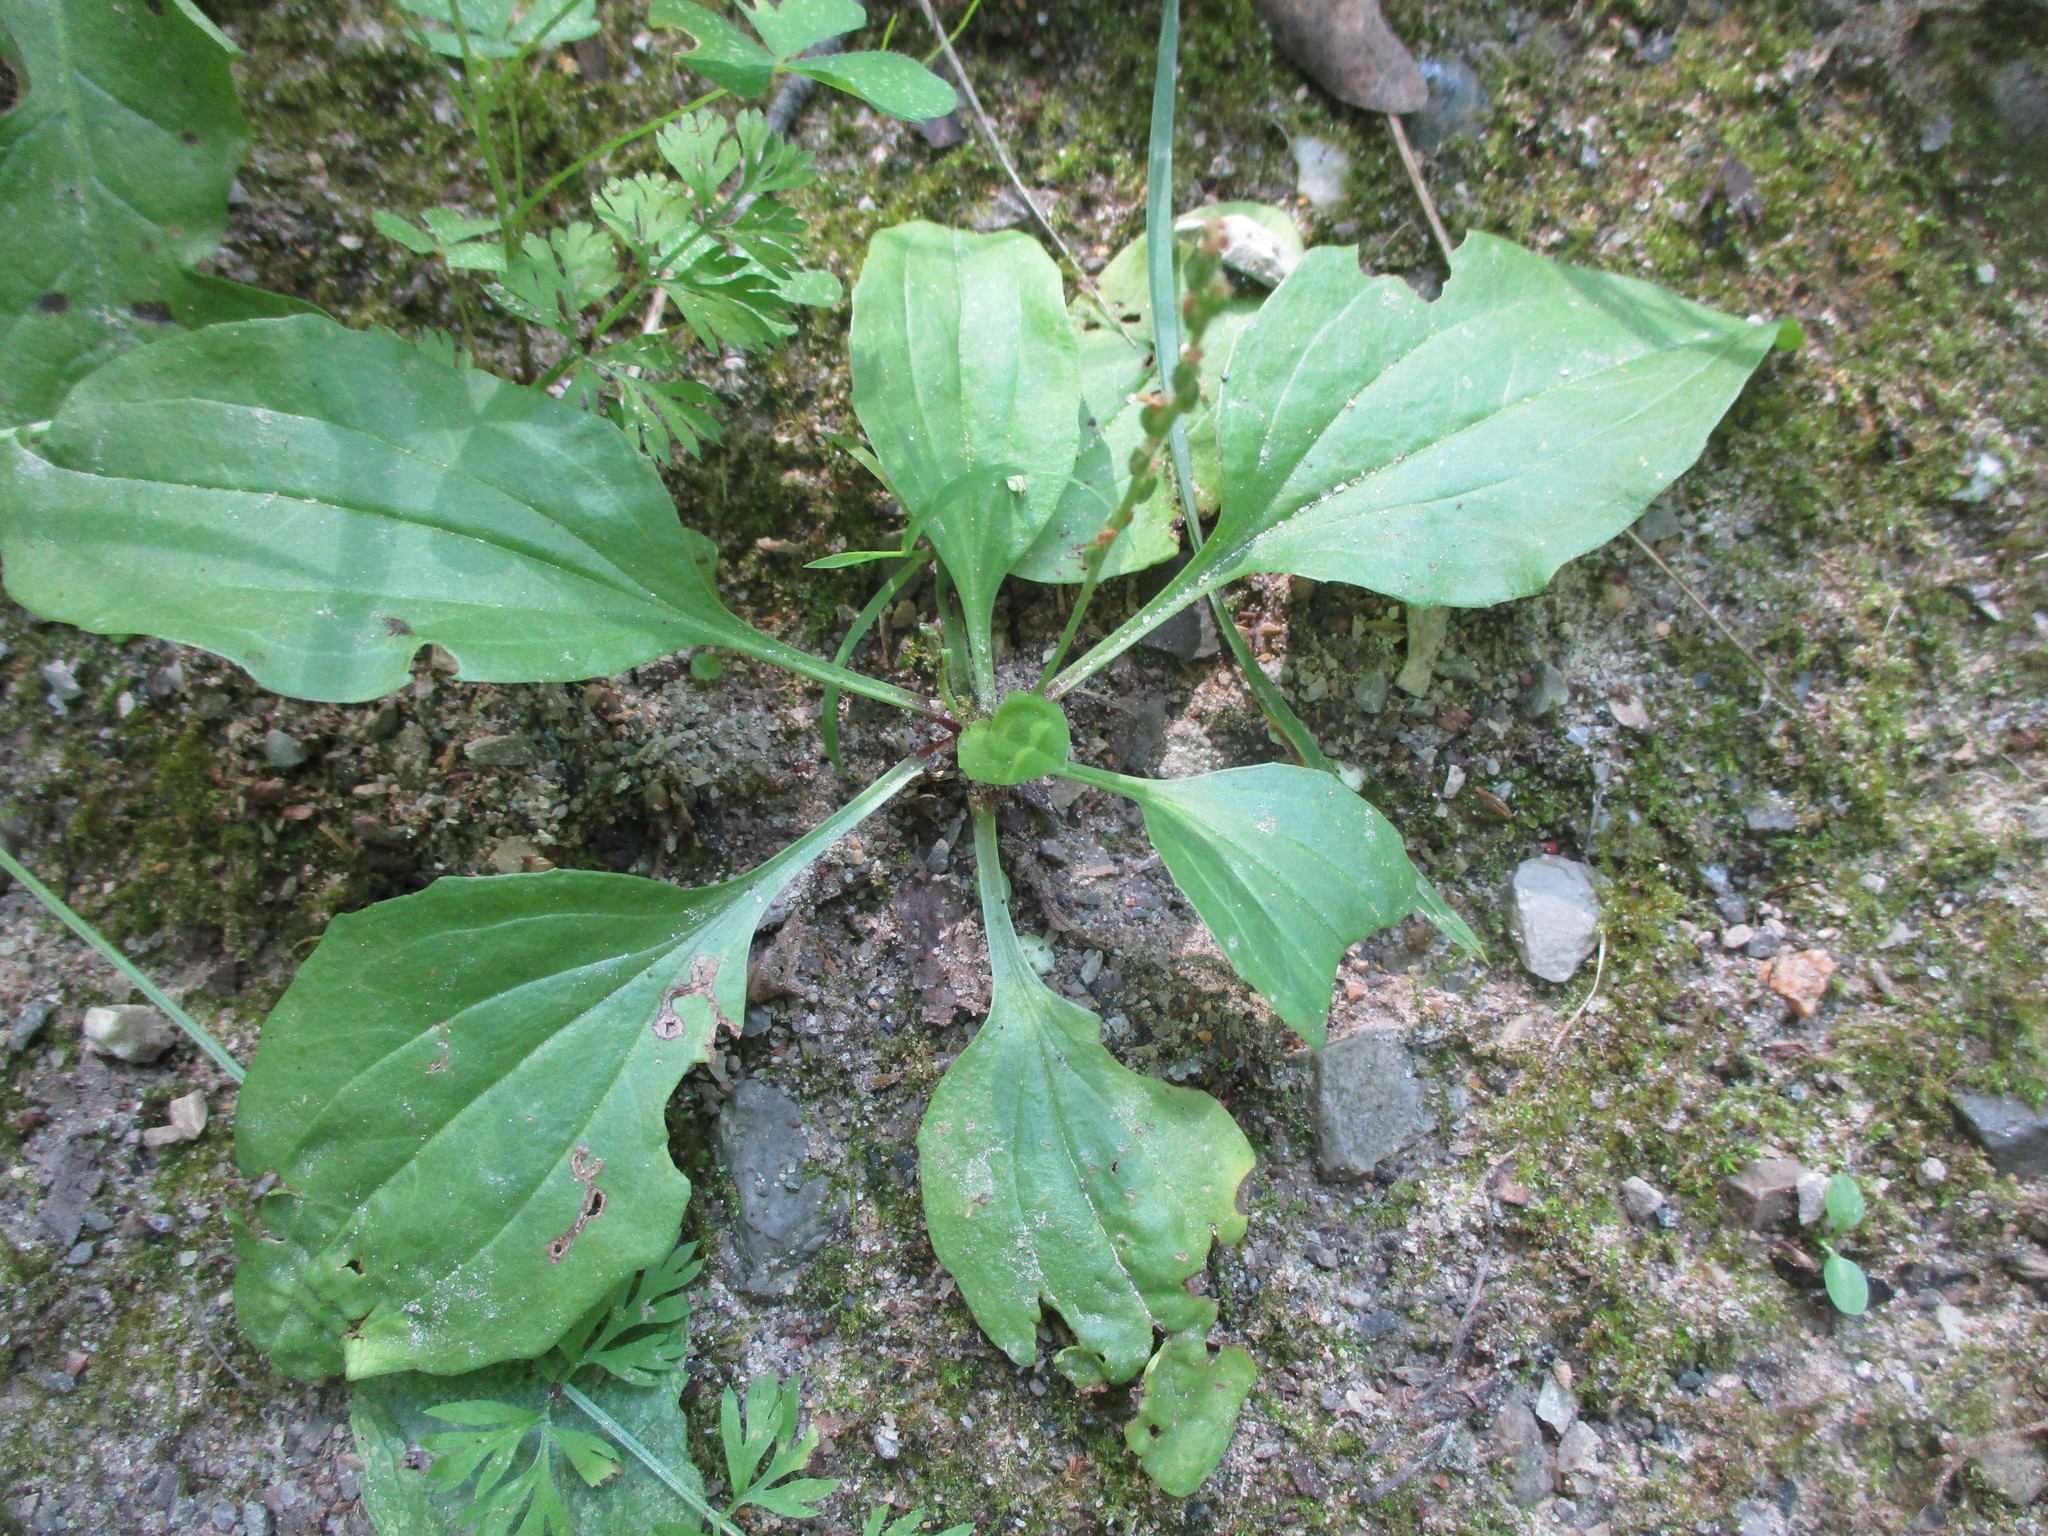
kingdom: Plantae
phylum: Tracheophyta
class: Magnoliopsida
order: Lamiales
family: Plantaginaceae
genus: Plantago
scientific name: Plantago rugelii
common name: American plantain
